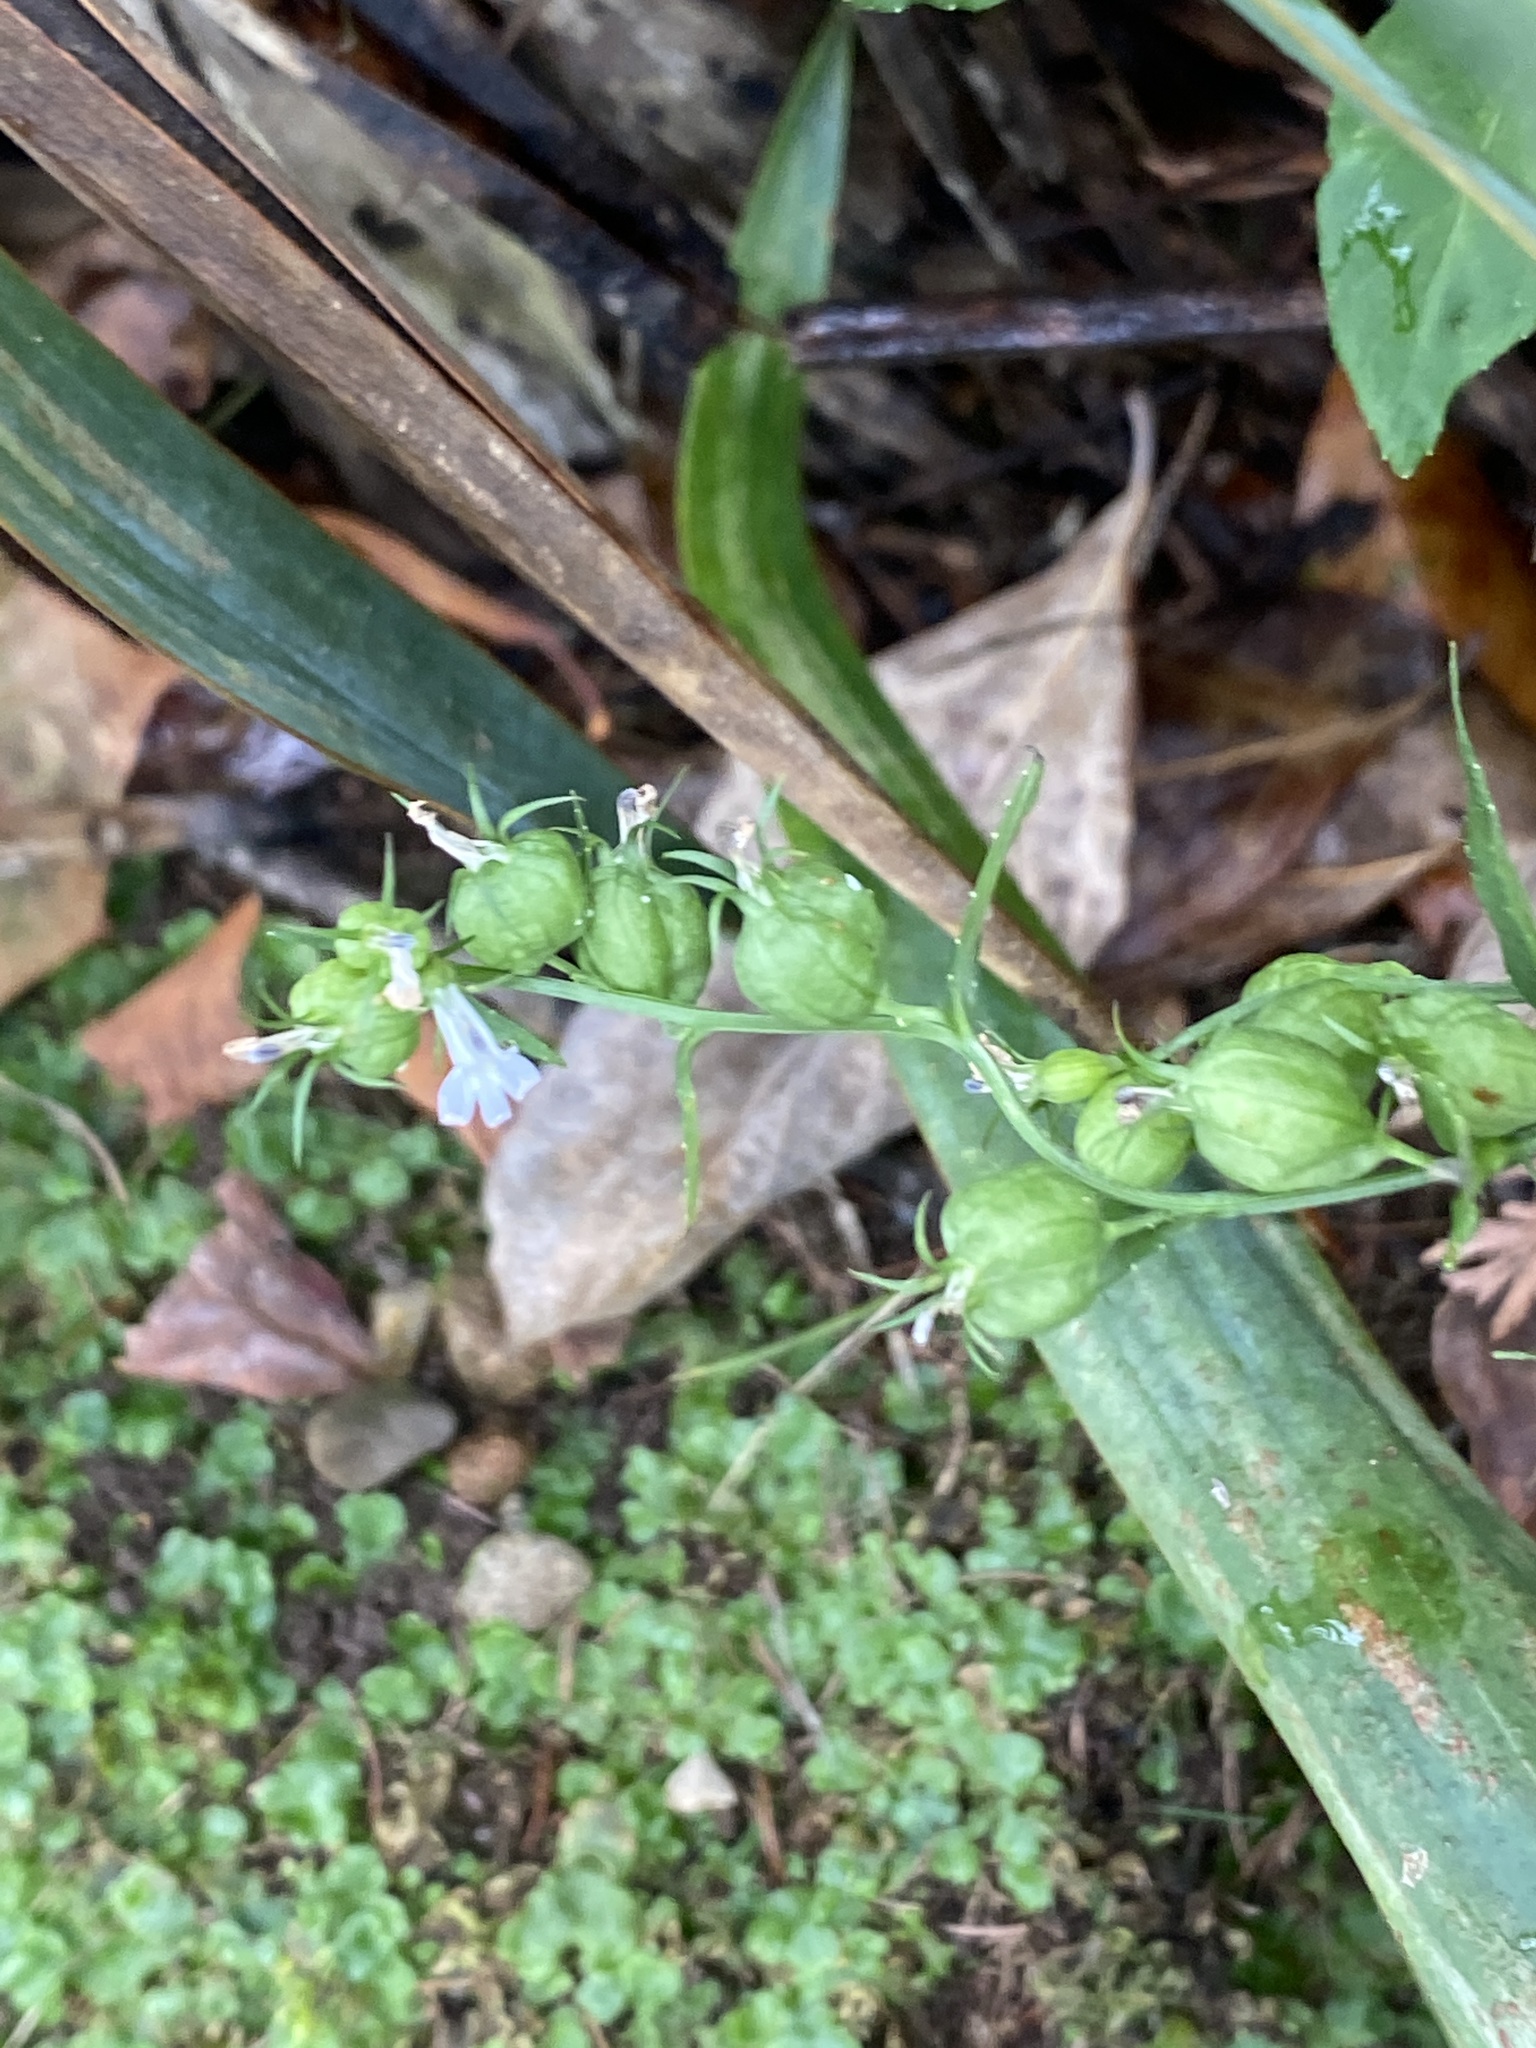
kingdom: Plantae
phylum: Tracheophyta
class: Magnoliopsida
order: Asterales
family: Campanulaceae
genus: Lobelia
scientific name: Lobelia inflata
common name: Indian tobacco
